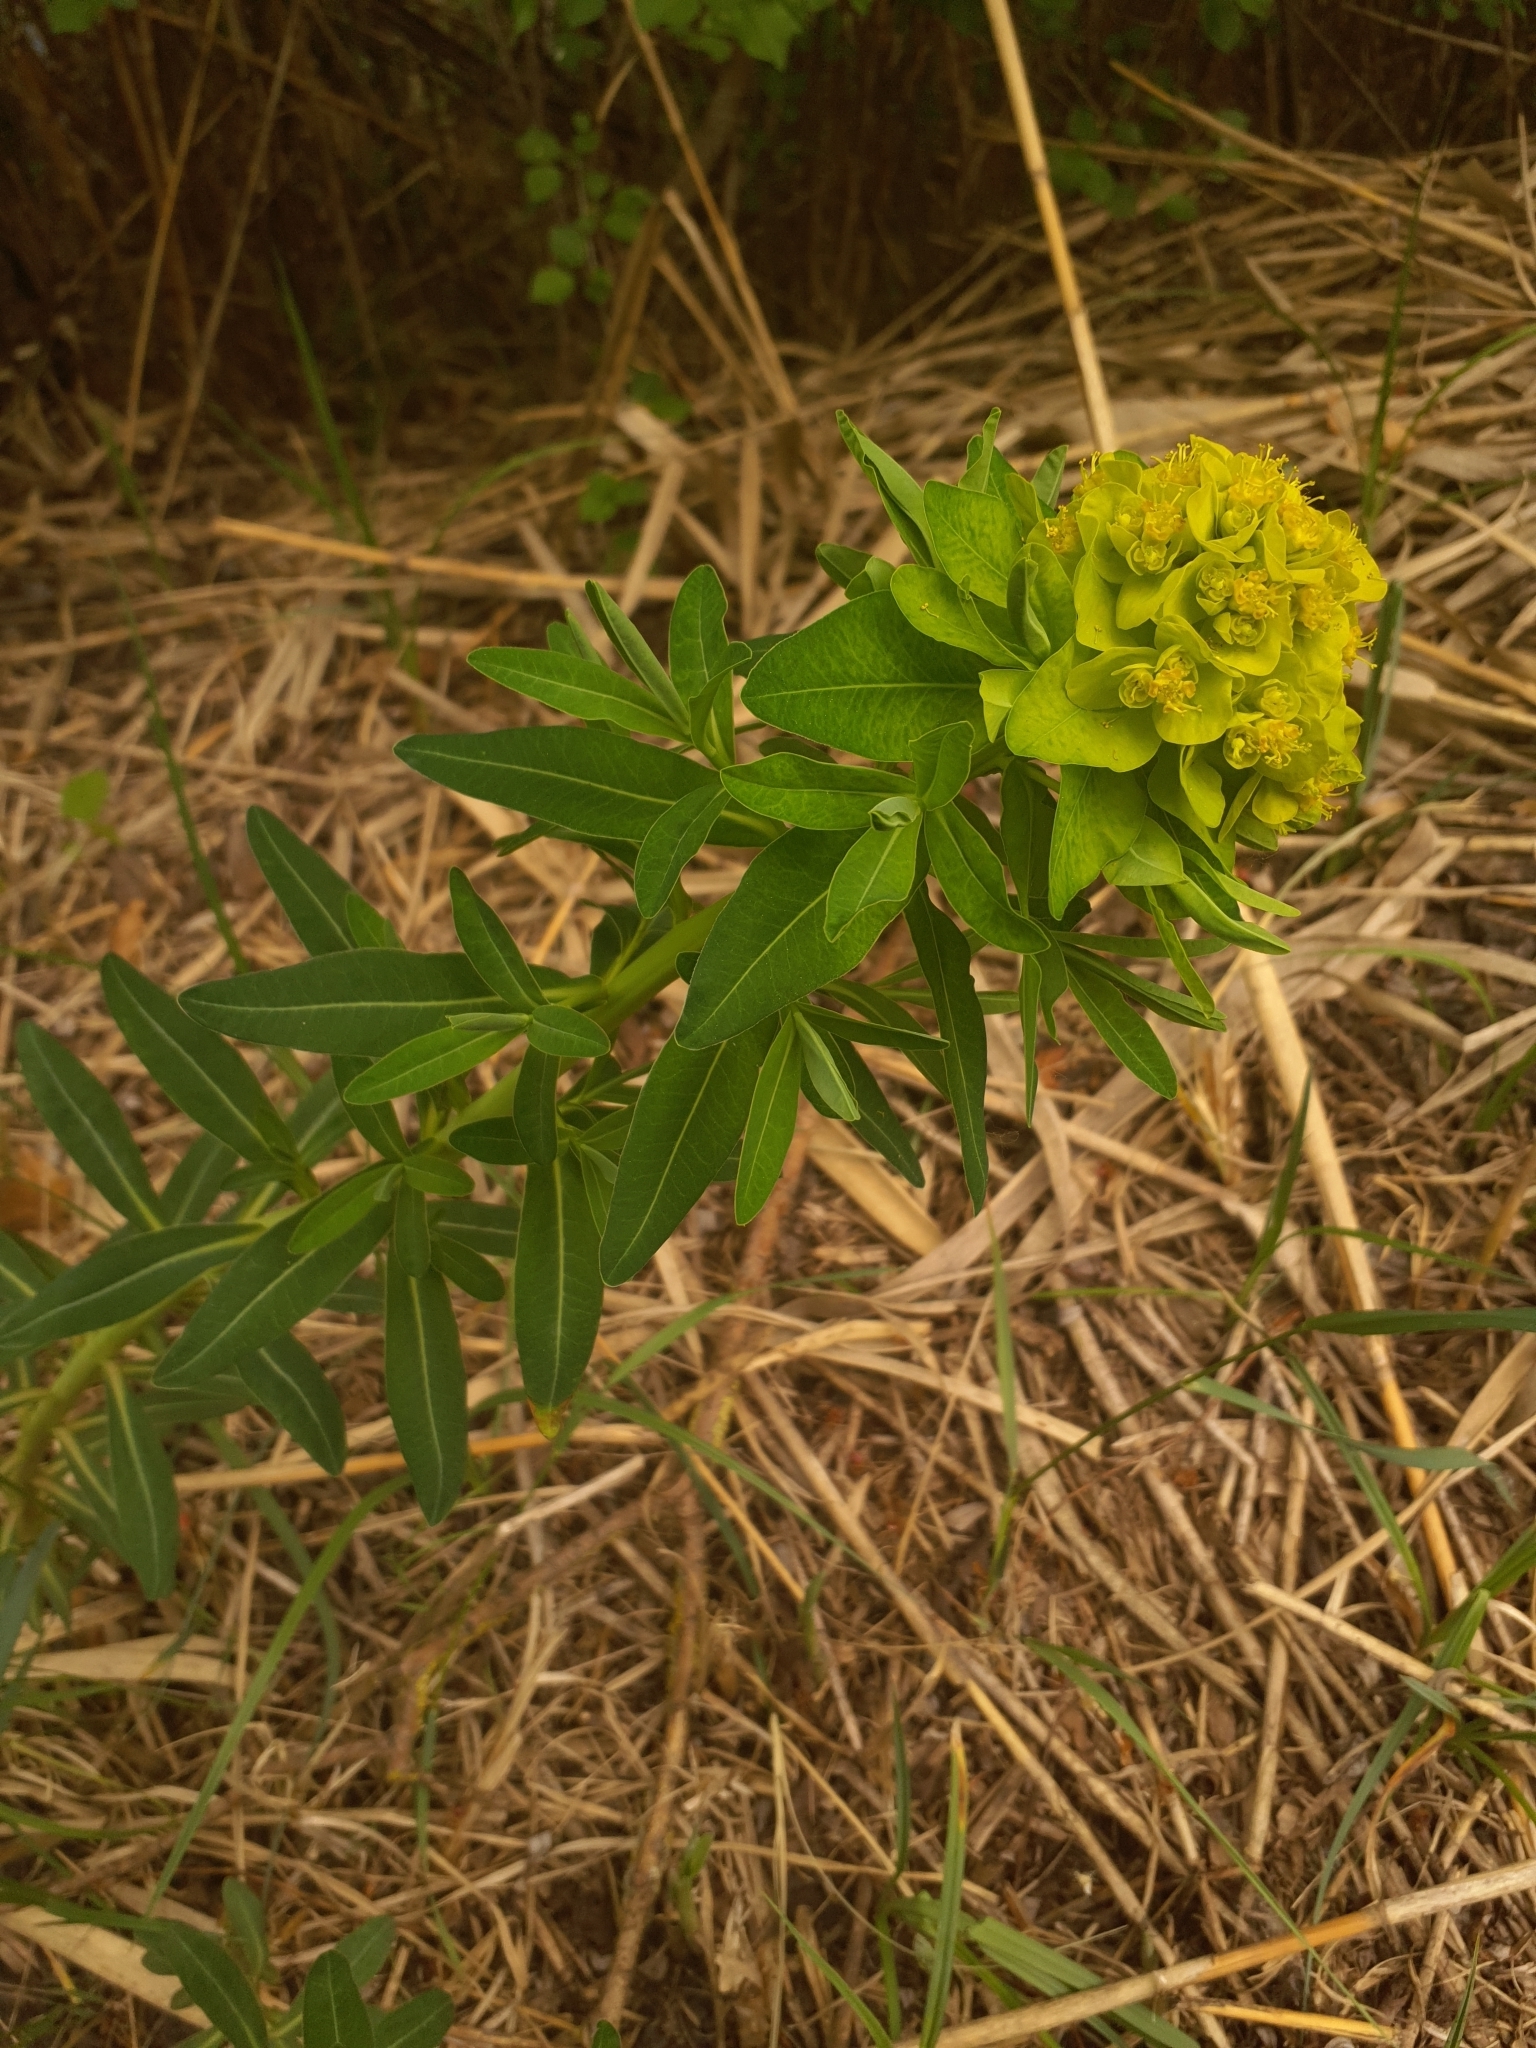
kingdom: Plantae
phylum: Tracheophyta
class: Magnoliopsida
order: Malpighiales
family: Euphorbiaceae
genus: Euphorbia
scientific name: Euphorbia palustris
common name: Marsh spurge
